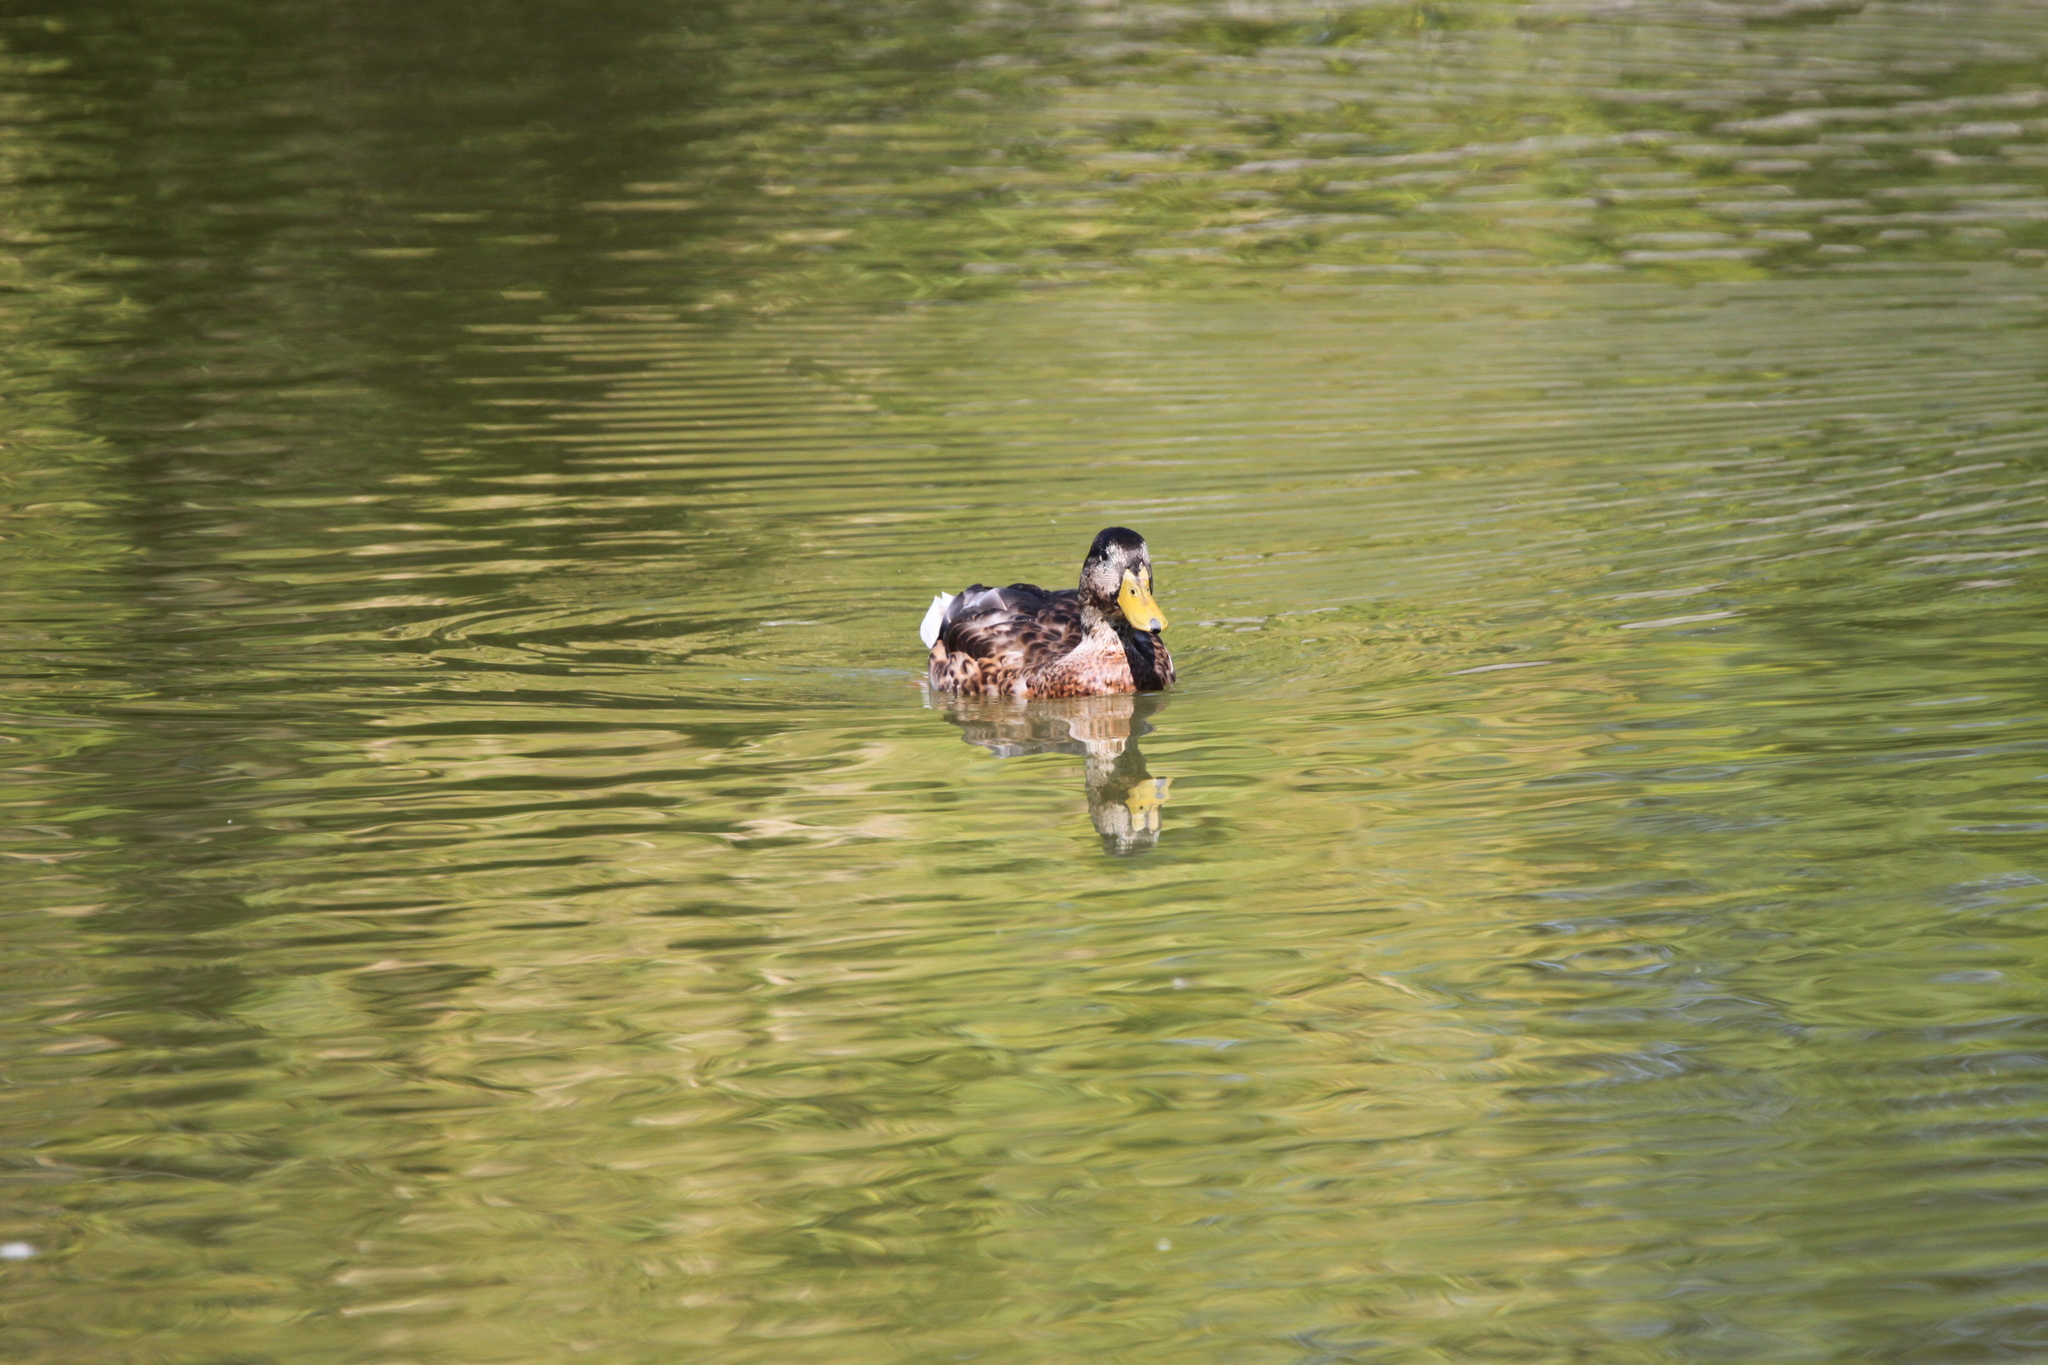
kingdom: Animalia
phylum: Chordata
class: Aves
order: Anseriformes
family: Anatidae
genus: Anas
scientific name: Anas platyrhynchos
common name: Mallard
